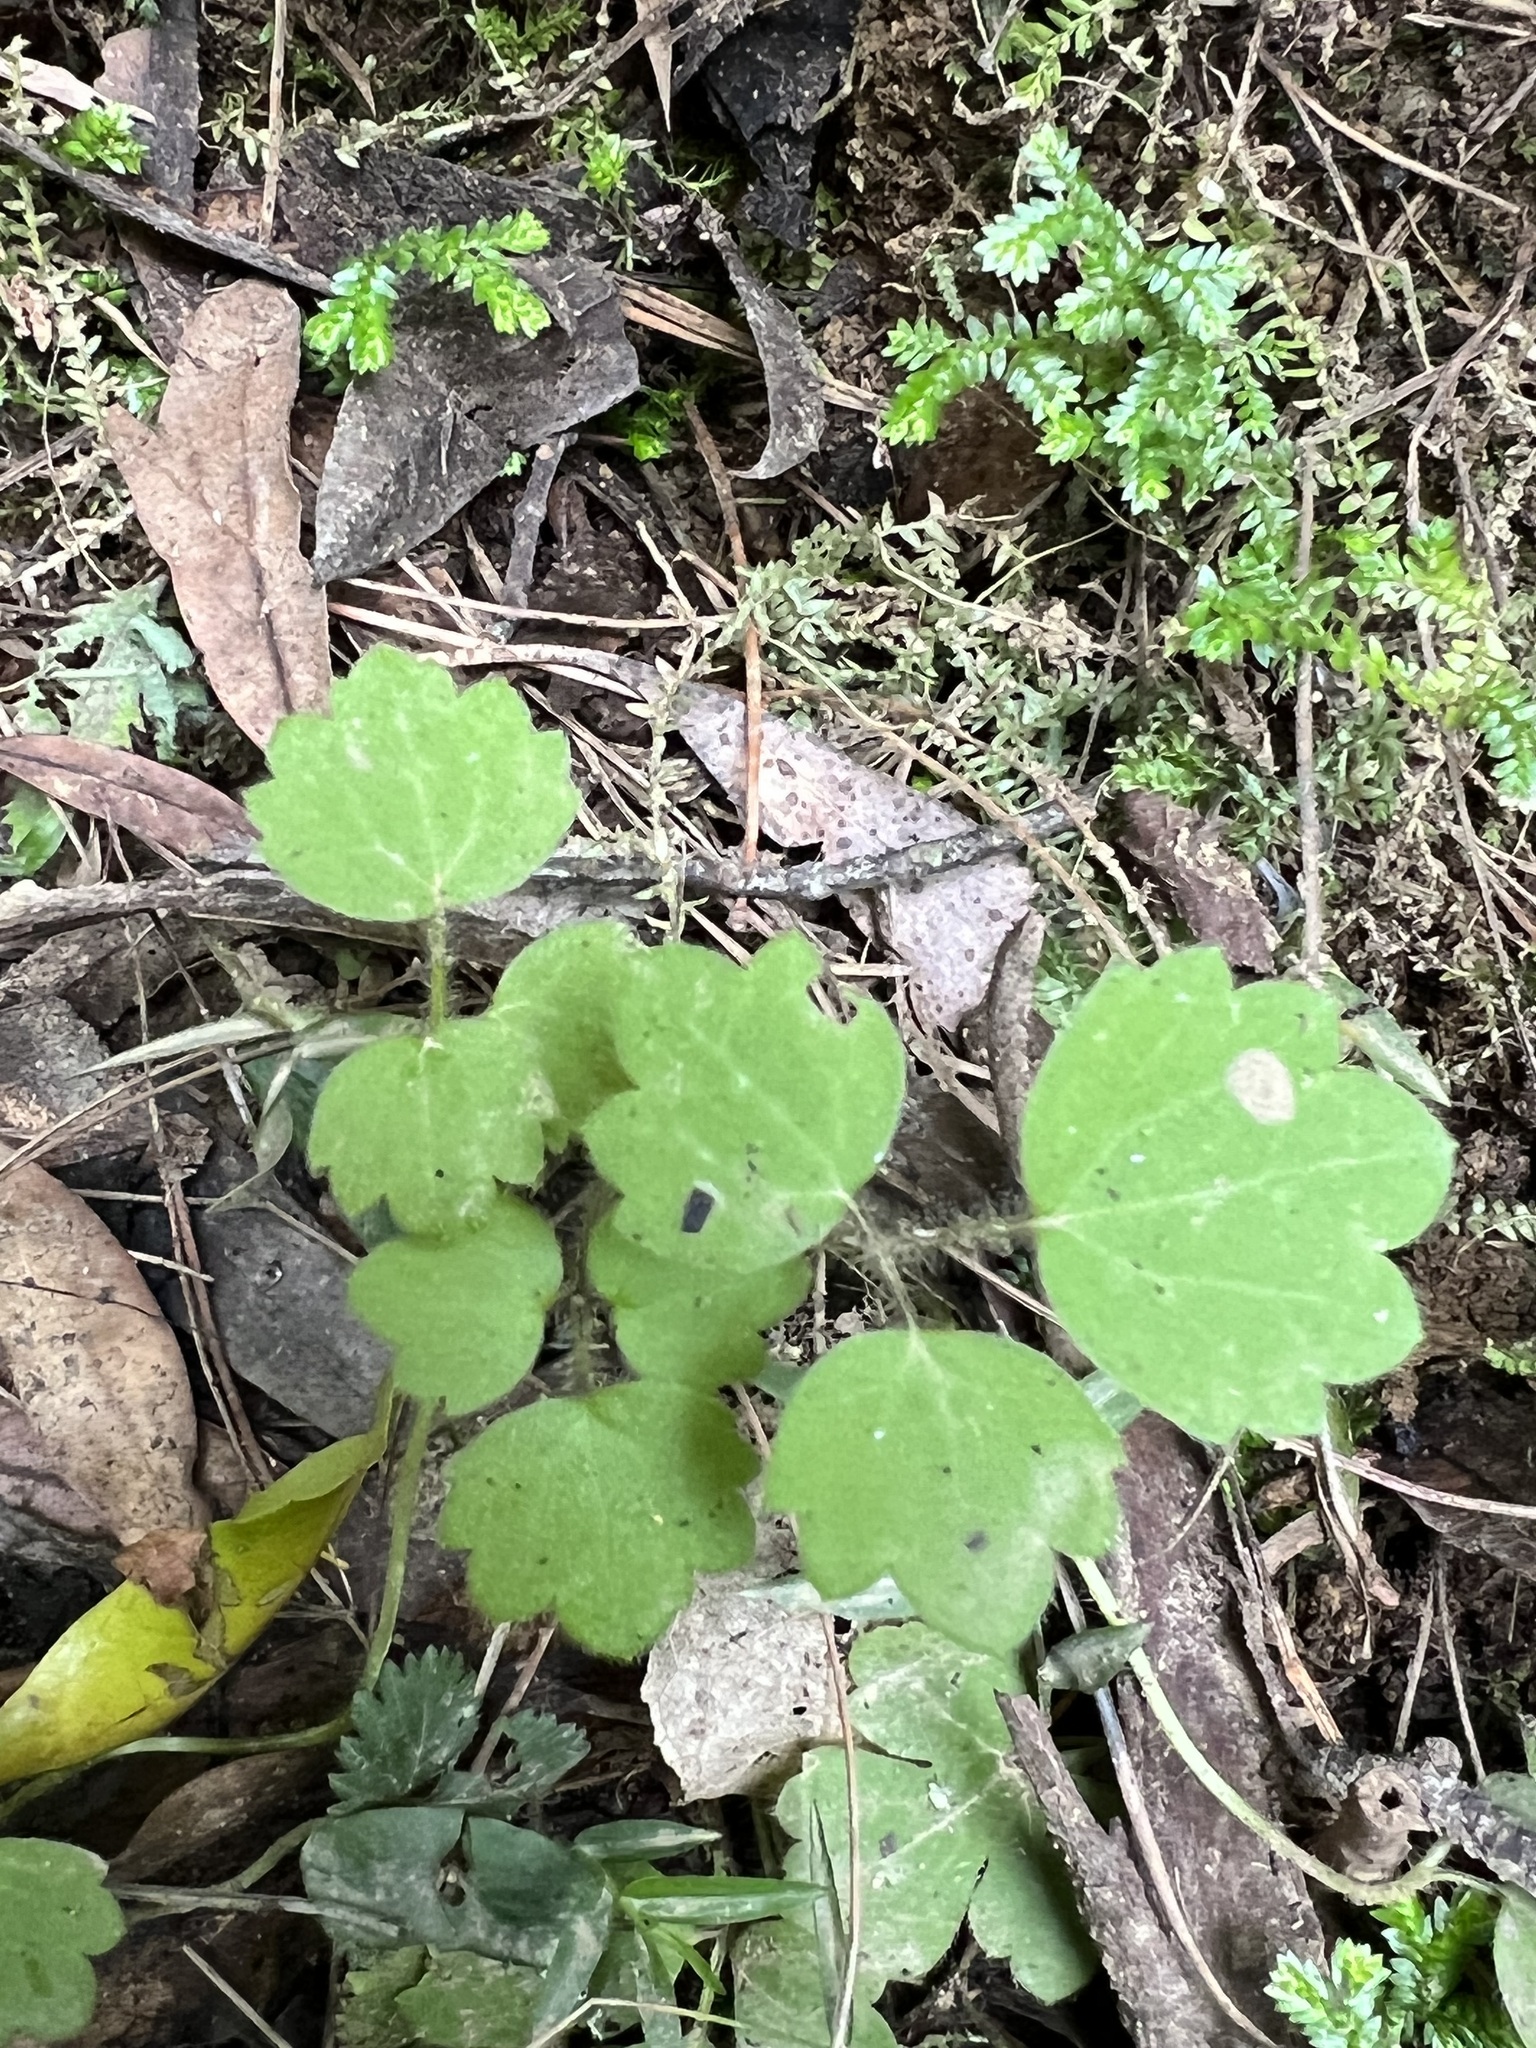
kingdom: Plantae
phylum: Tracheophyta
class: Magnoliopsida
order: Ranunculales
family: Ranunculaceae
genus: Ranunculus
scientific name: Ranunculus reflexus
